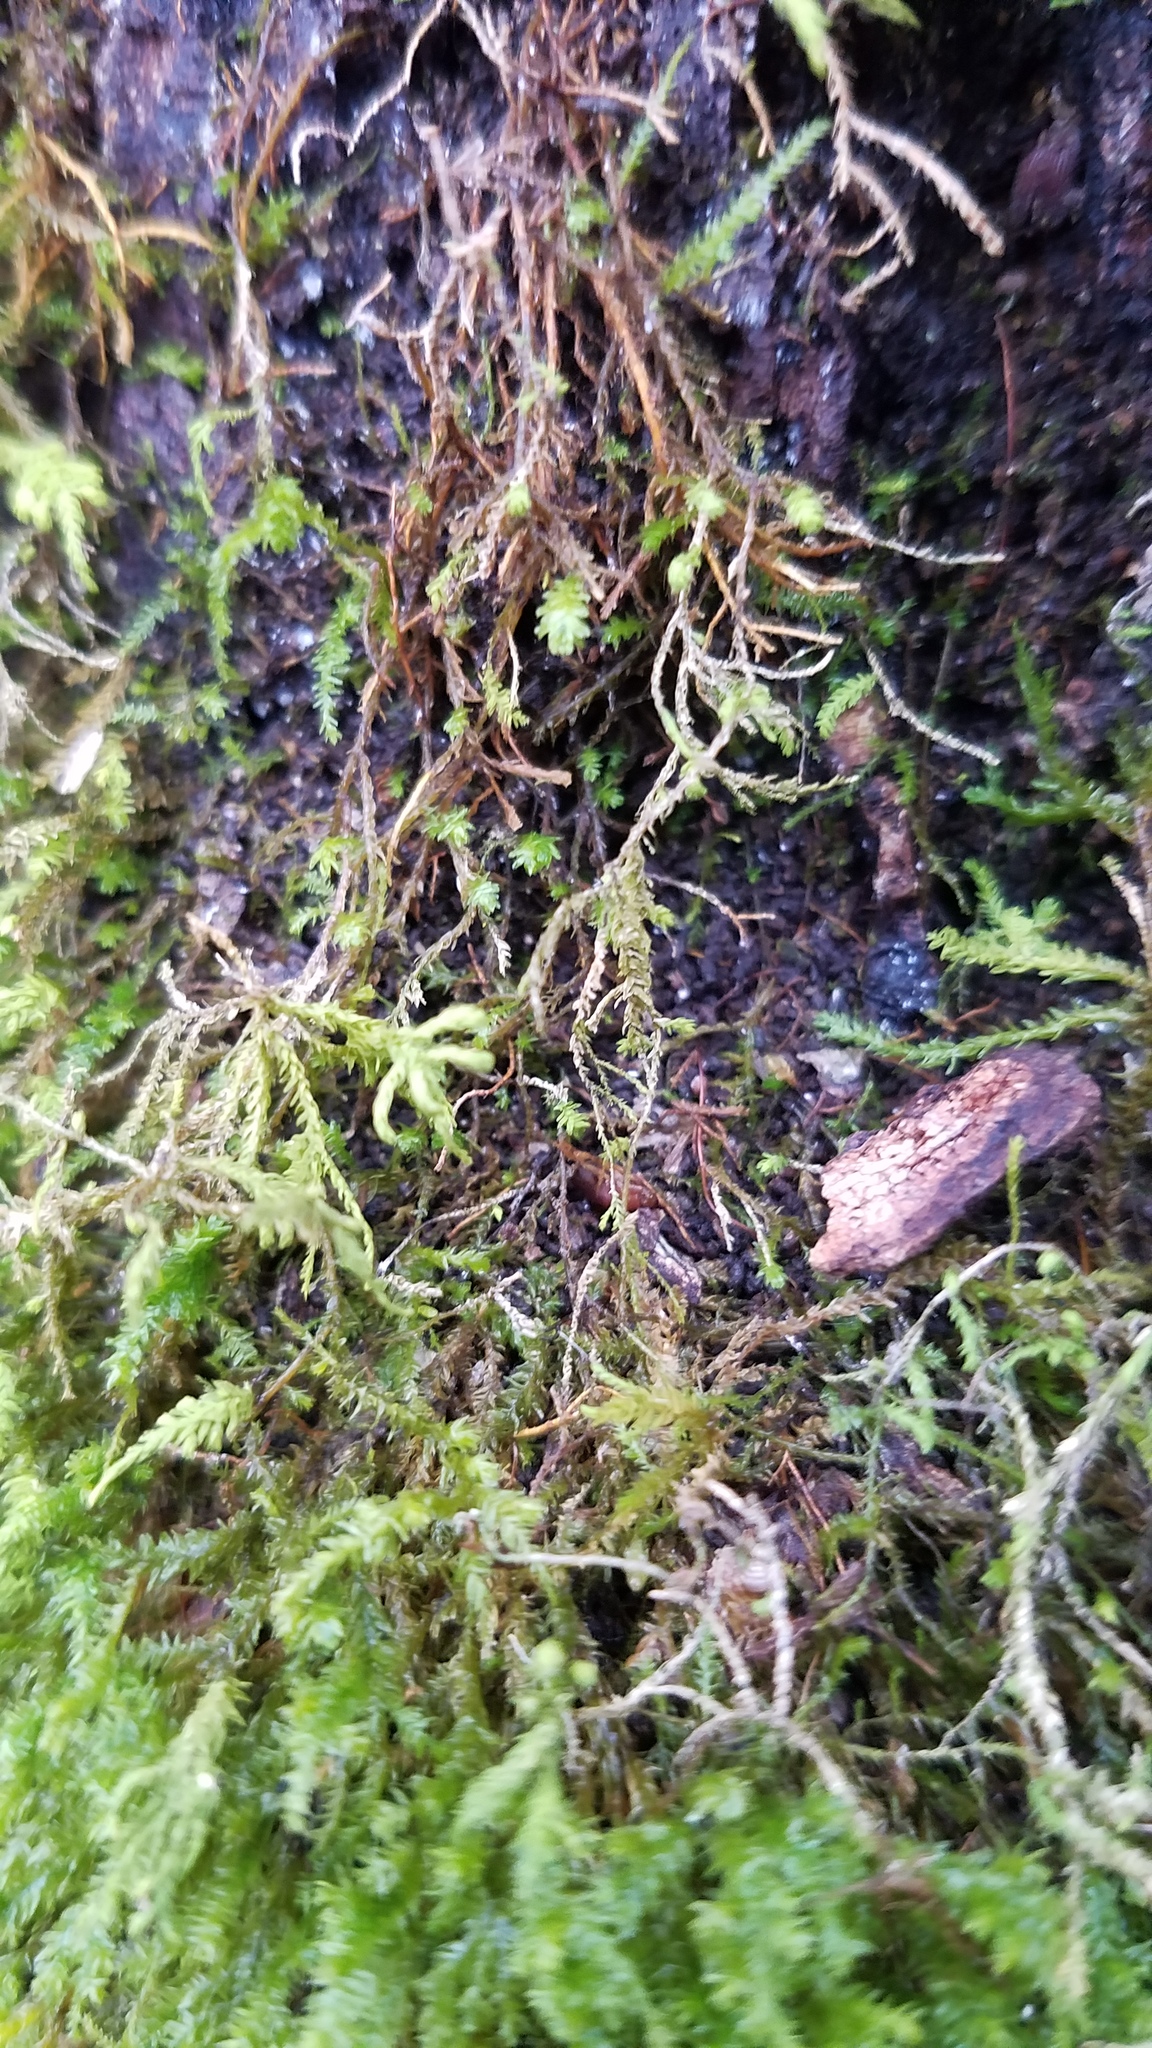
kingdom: Plantae
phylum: Bryophyta
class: Bryopsida
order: Hypnales
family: Neckeraceae
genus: Pseudanomodon
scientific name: Pseudanomodon attenuatus
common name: Tree-skirt moss
